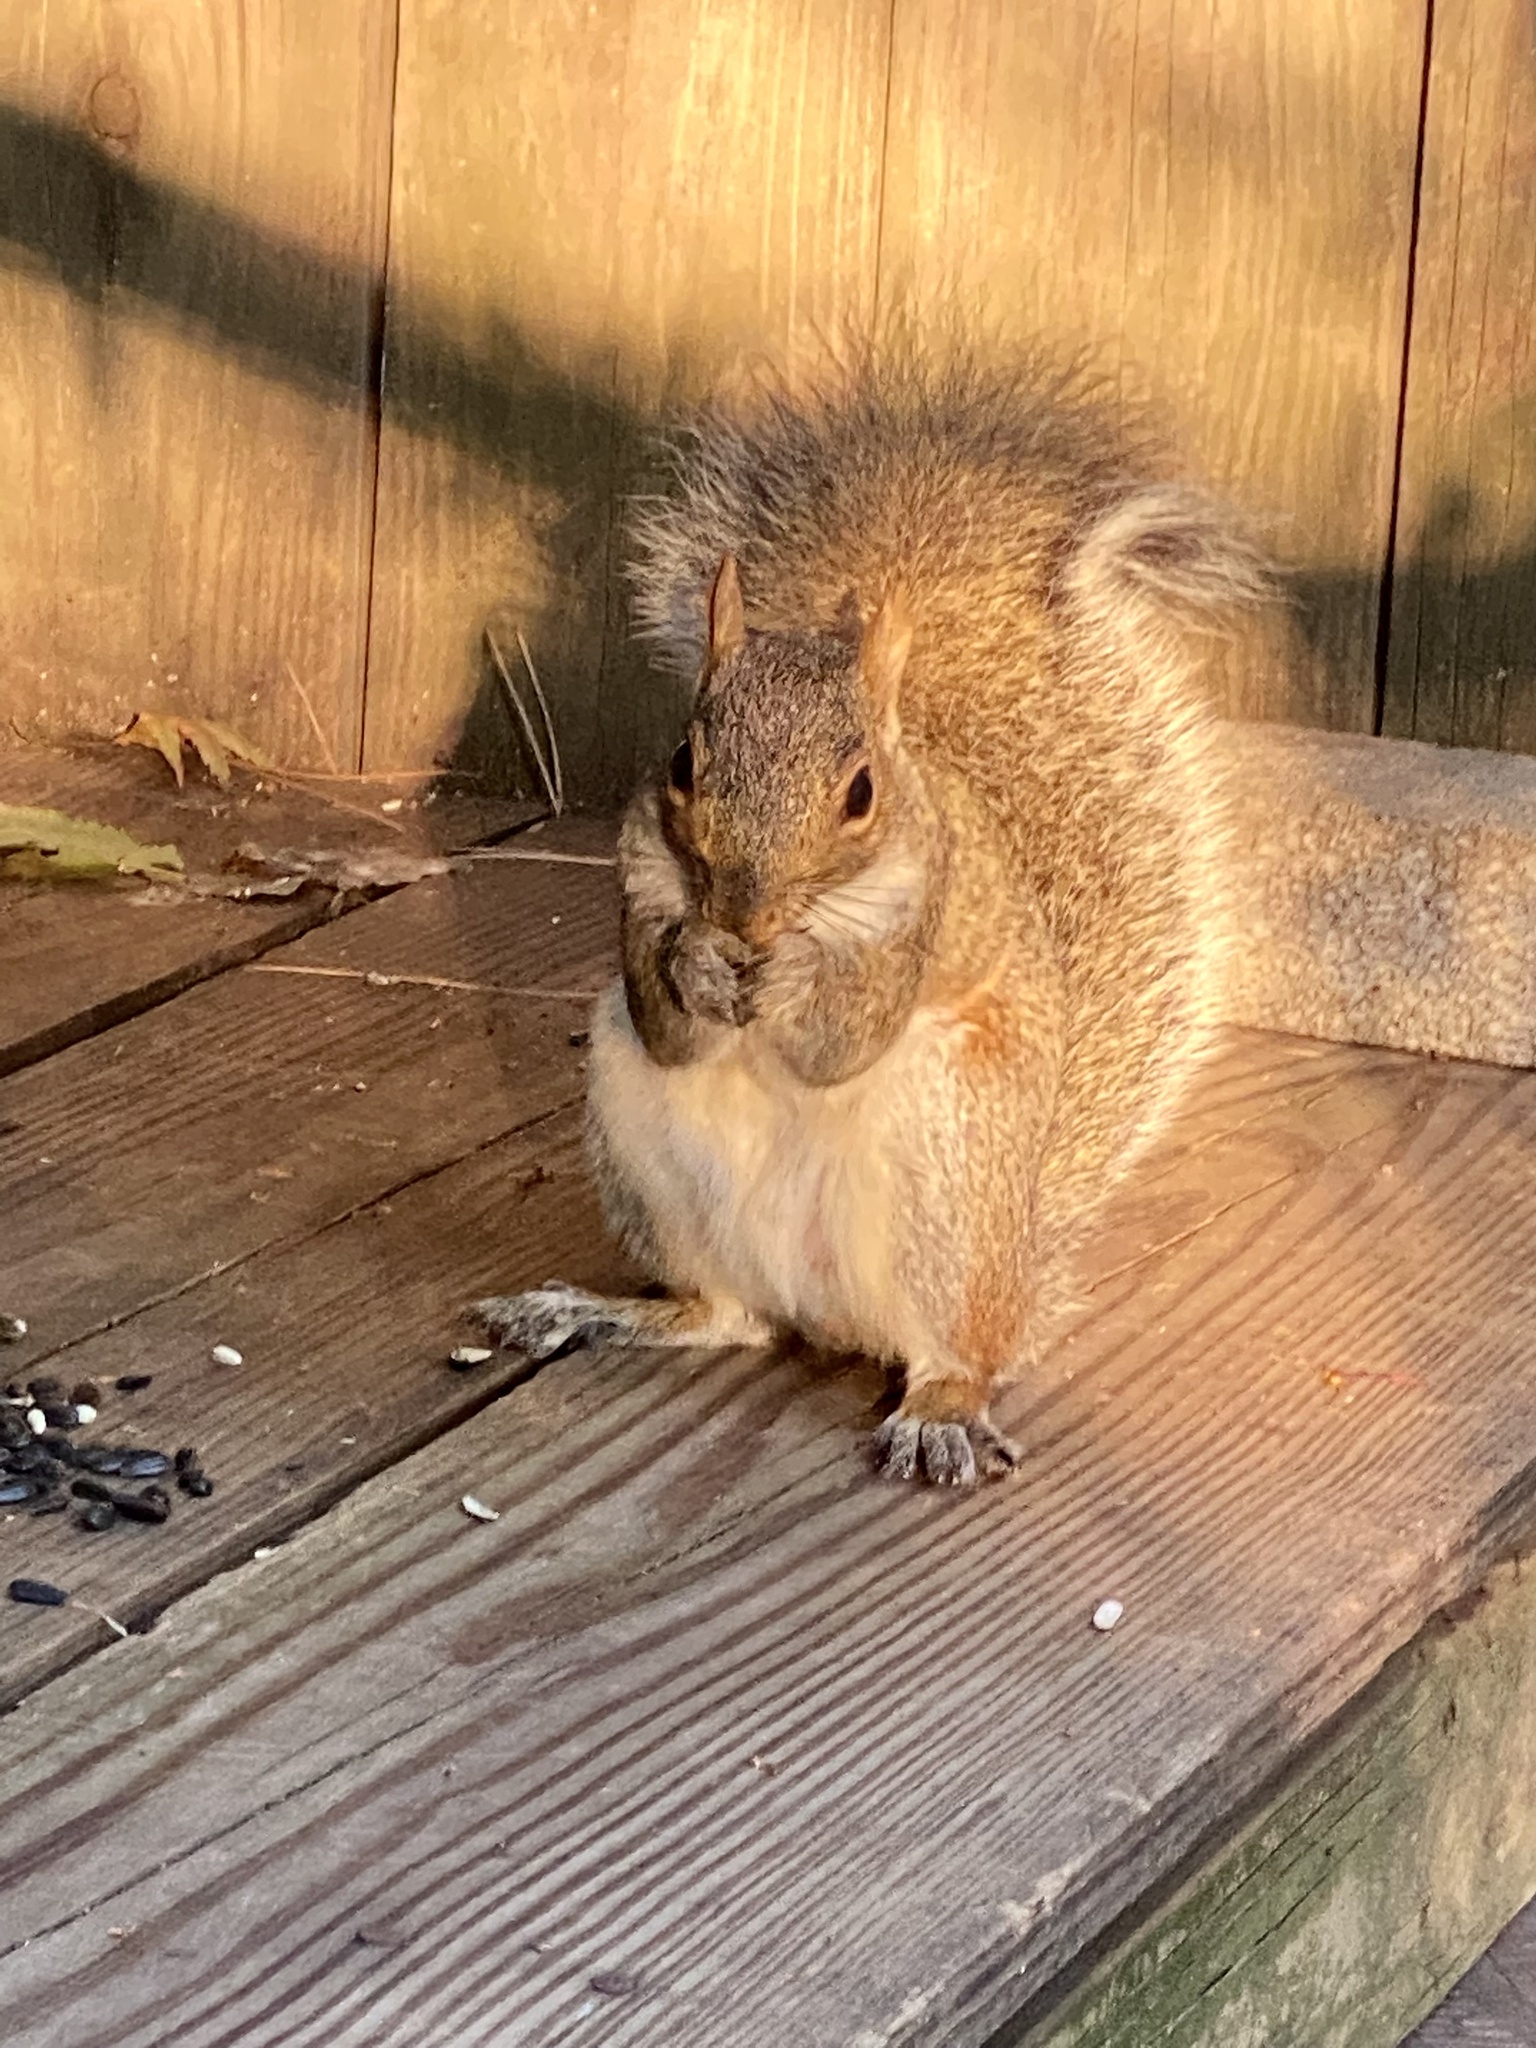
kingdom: Animalia
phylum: Chordata
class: Mammalia
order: Rodentia
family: Sciuridae
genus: Sciurus
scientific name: Sciurus carolinensis
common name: Eastern gray squirrel
